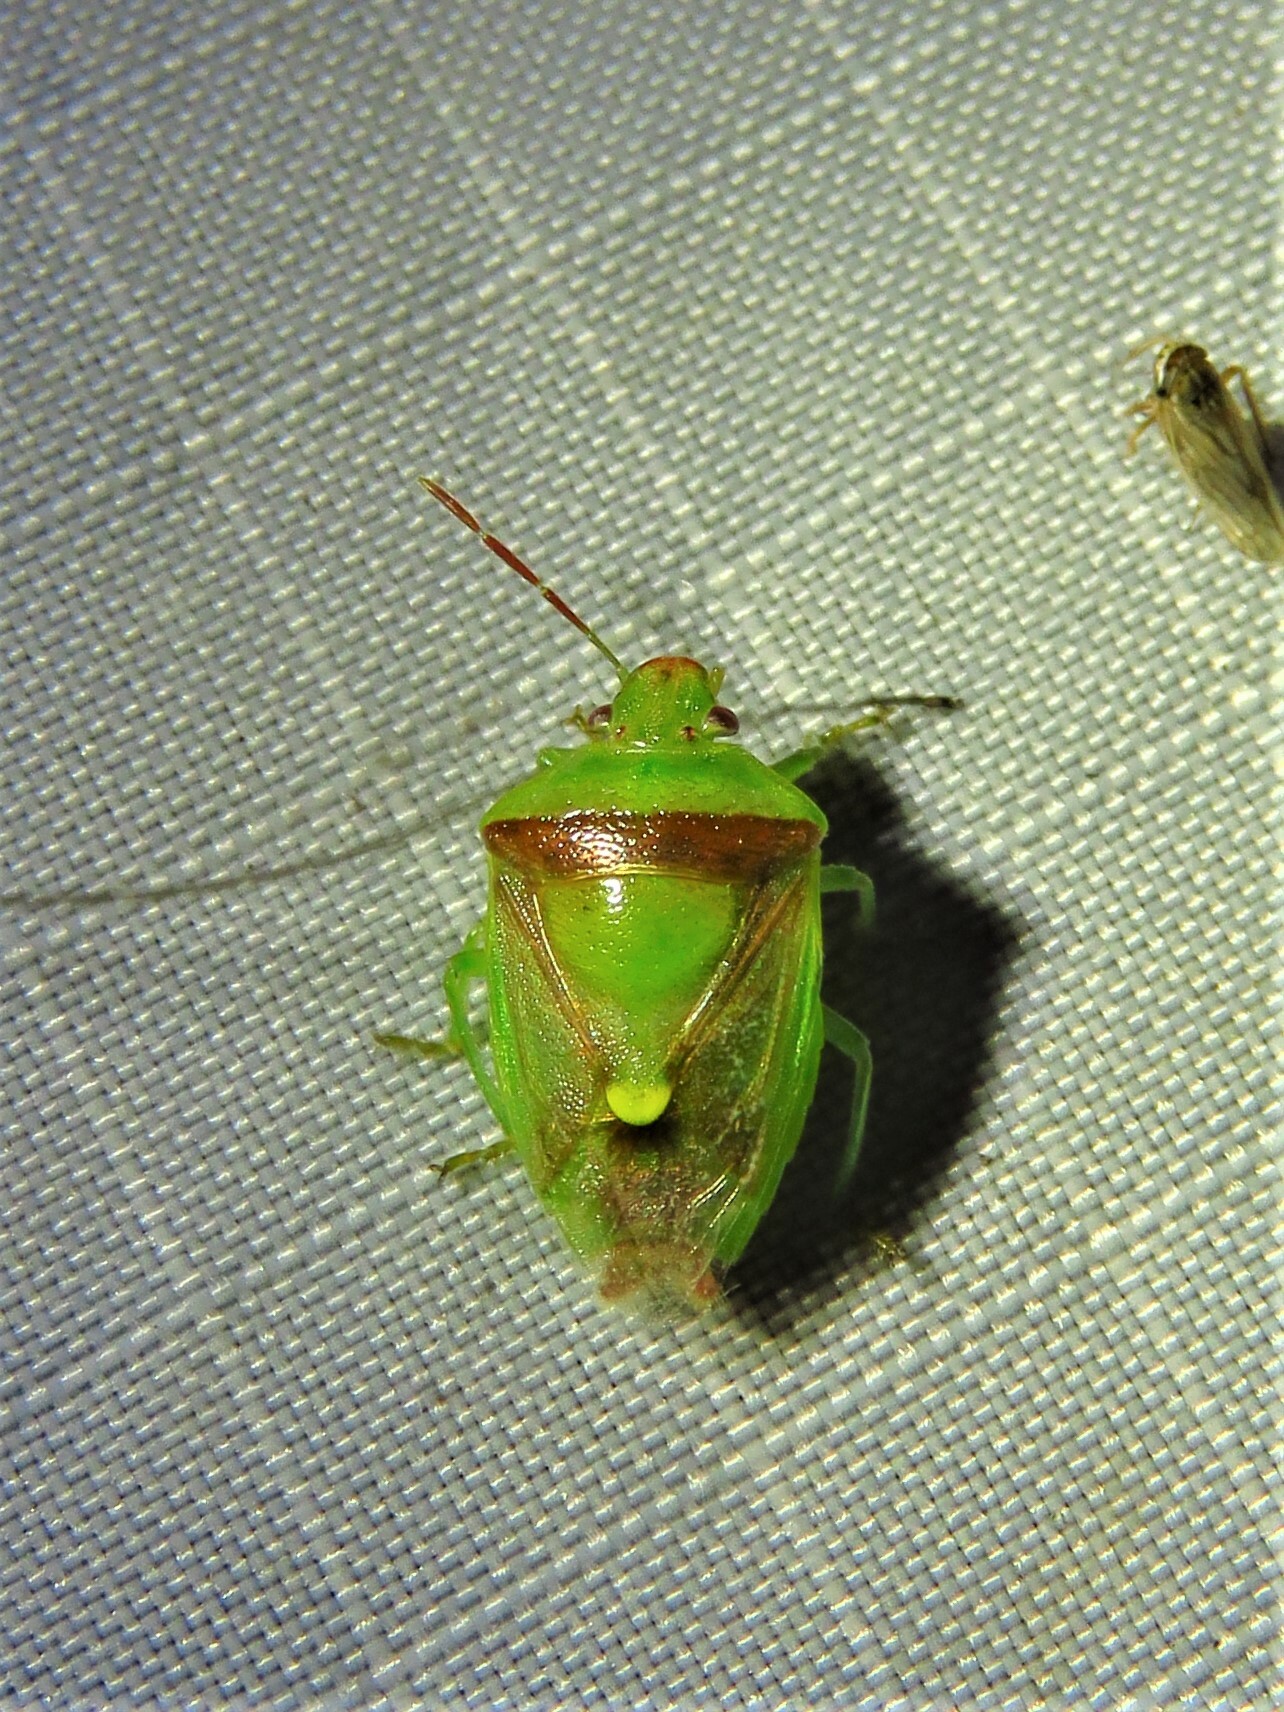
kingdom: Animalia
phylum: Arthropoda
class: Insecta
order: Hemiptera
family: Pentatomidae
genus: Banasa
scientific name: Banasa dimidiata
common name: Green burgundy stink bug
